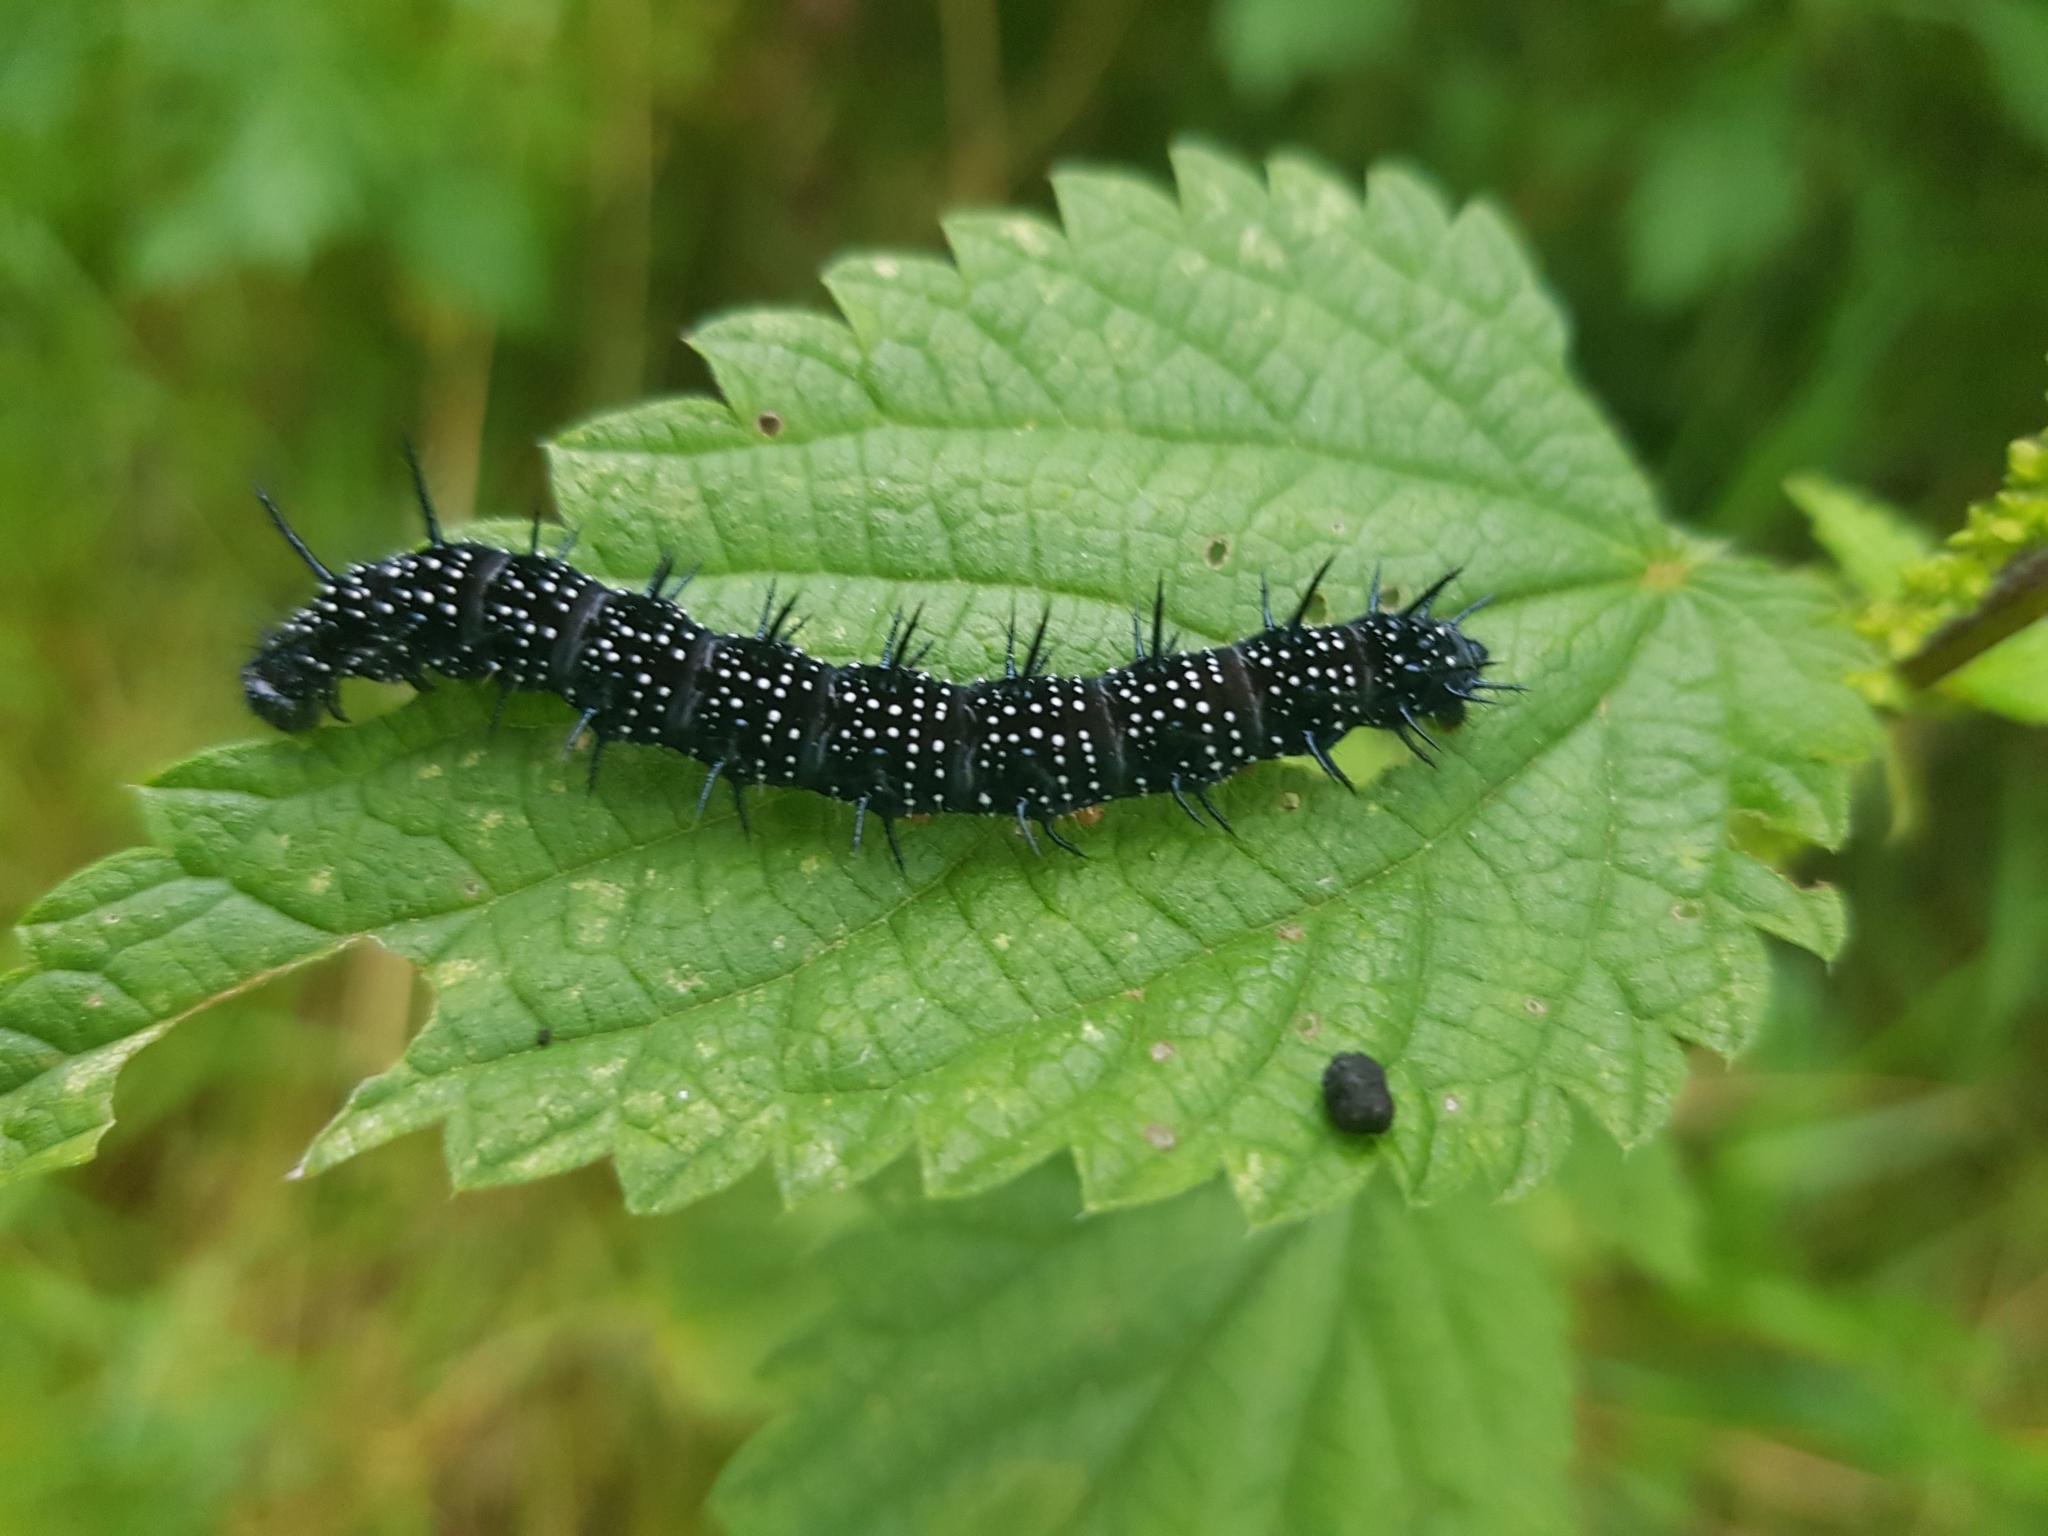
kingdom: Animalia
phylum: Arthropoda
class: Insecta
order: Lepidoptera
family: Nymphalidae
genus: Aglais
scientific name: Aglais io
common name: Peacock
